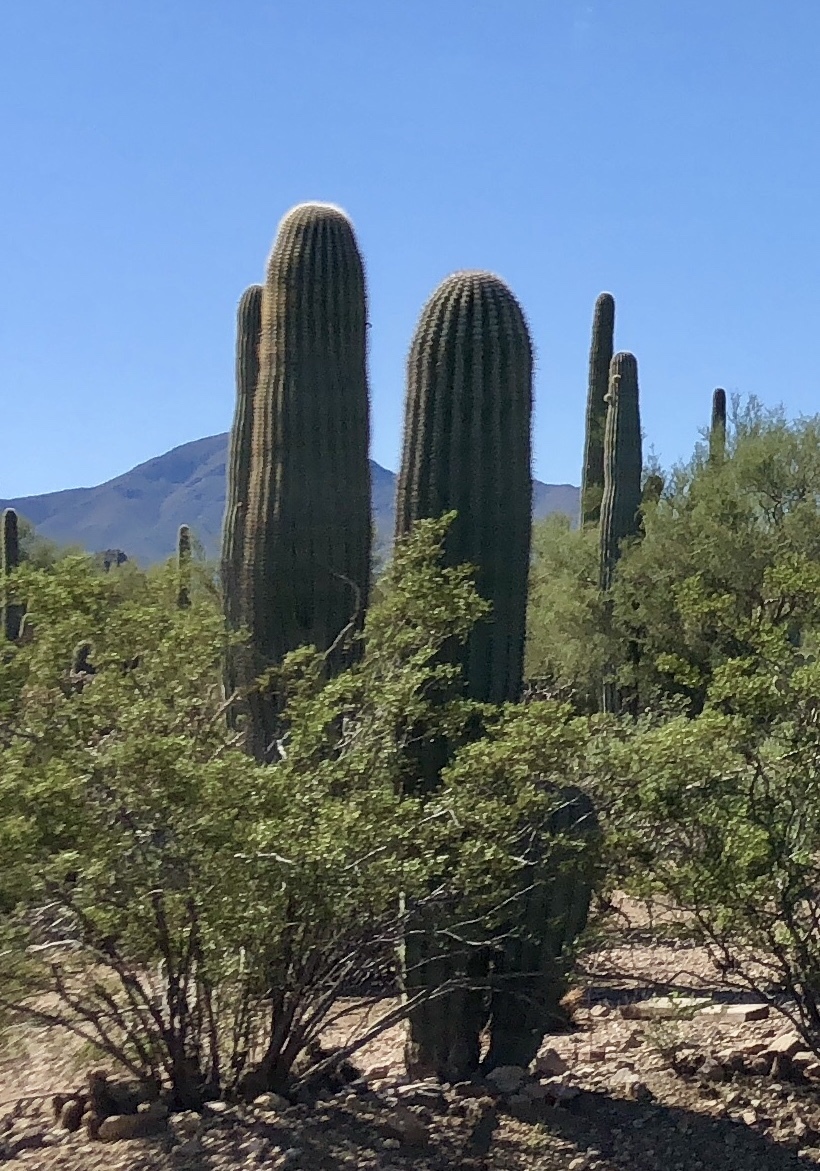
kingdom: Plantae
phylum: Tracheophyta
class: Magnoliopsida
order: Caryophyllales
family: Cactaceae
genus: Carnegiea
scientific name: Carnegiea gigantea
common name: Saguaro
